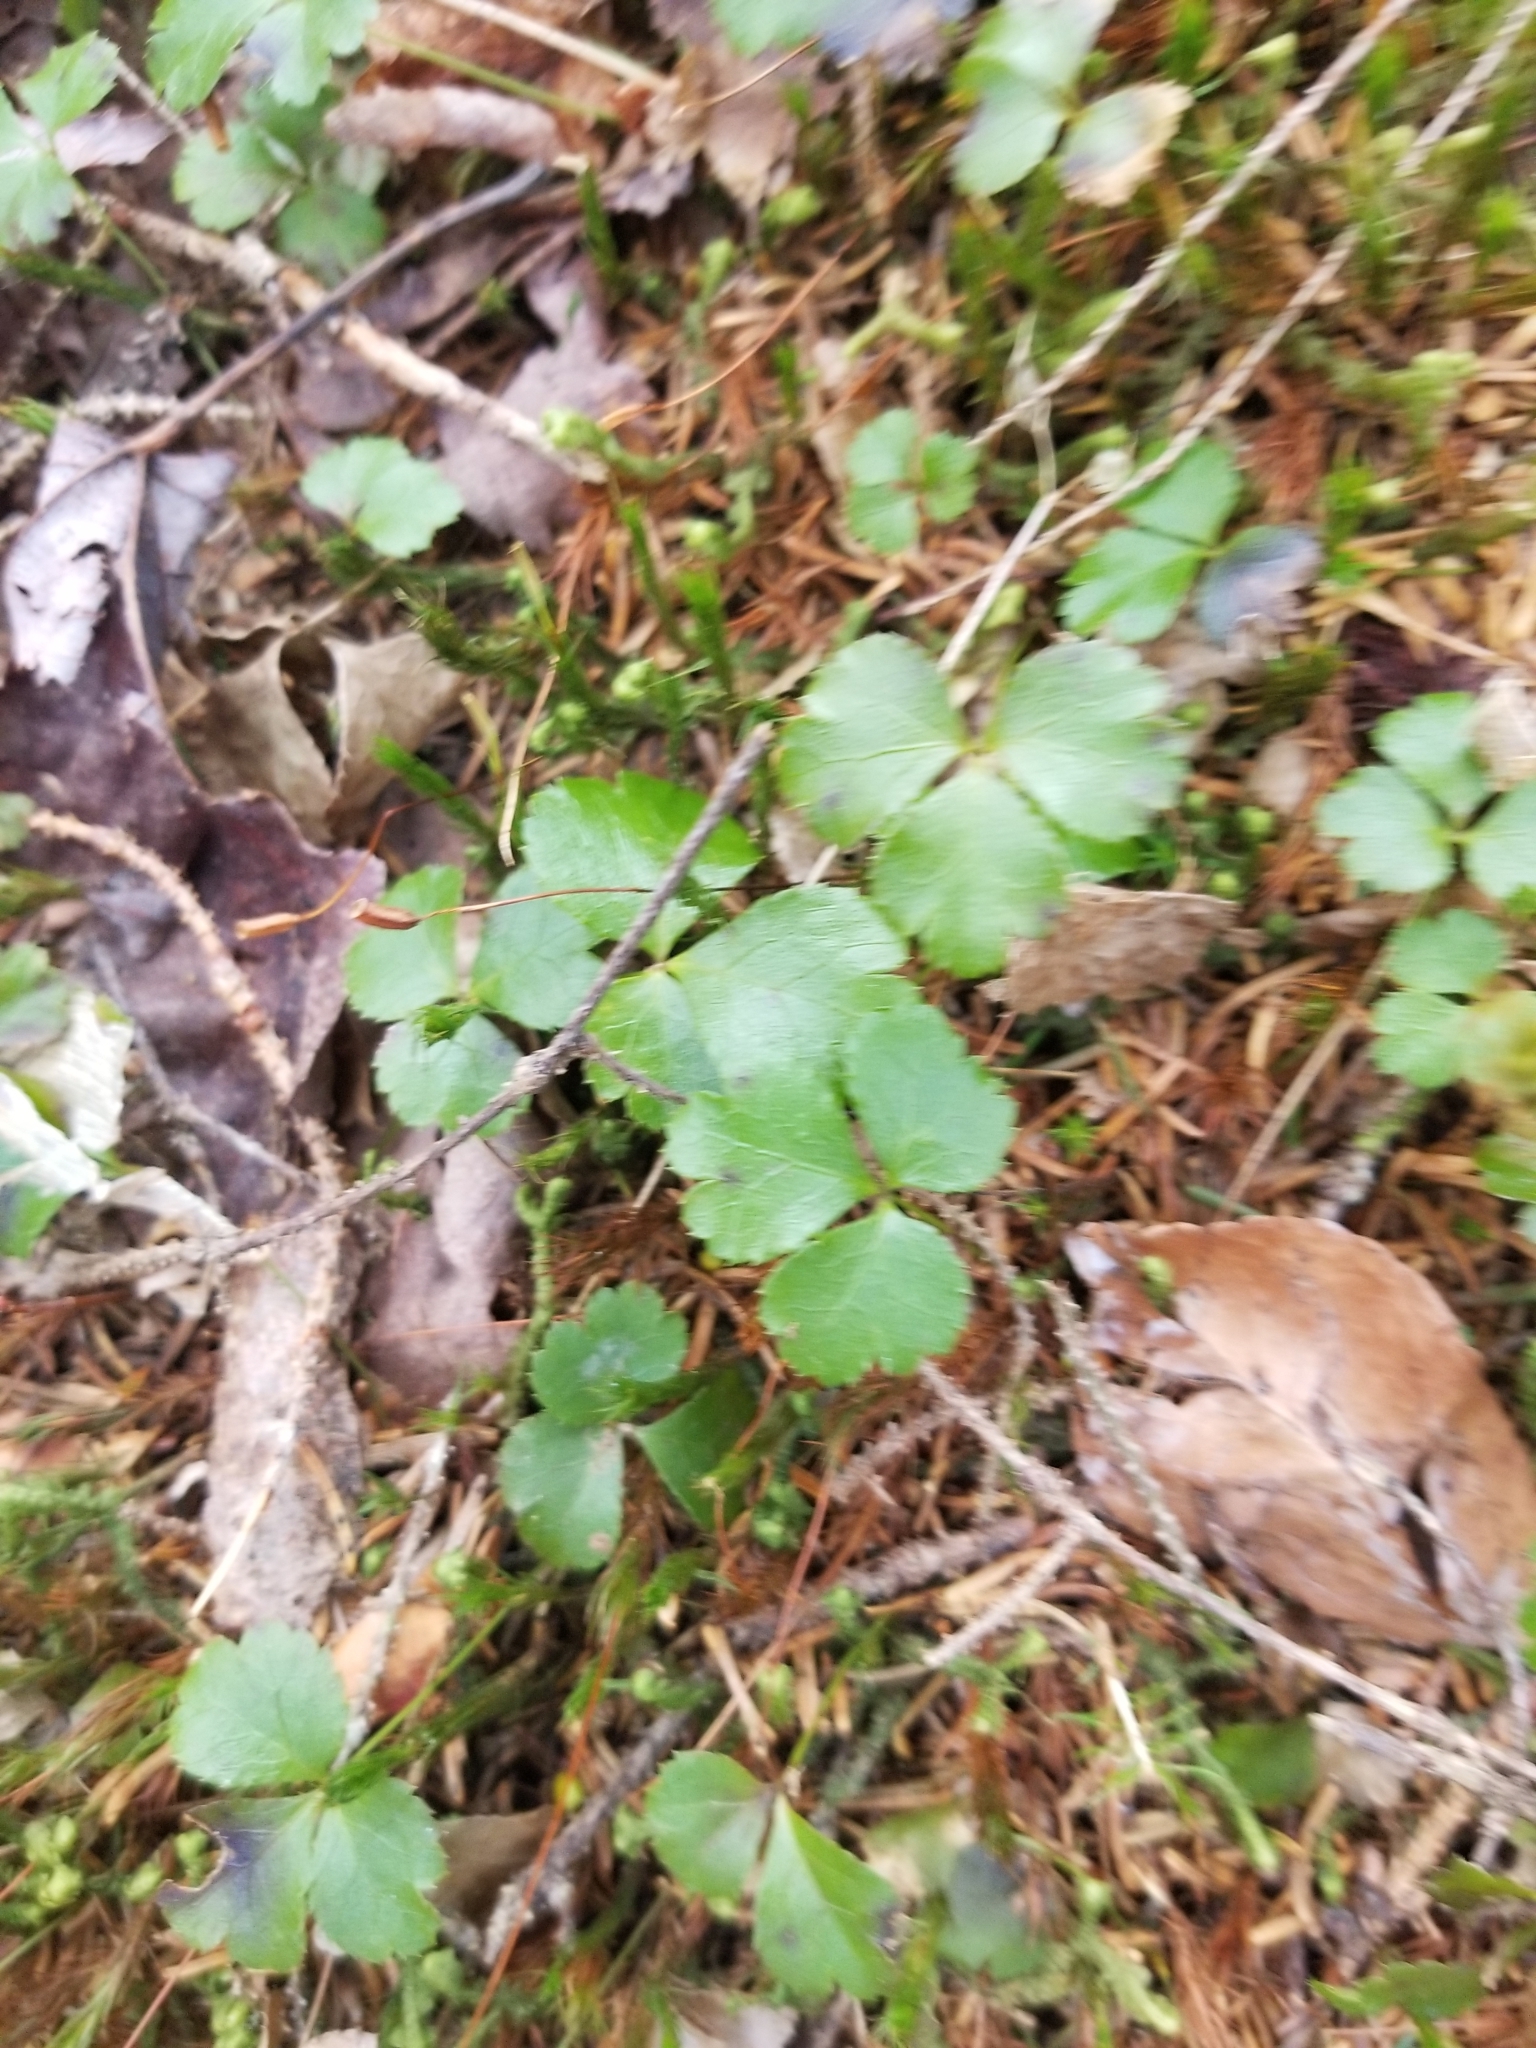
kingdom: Plantae
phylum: Tracheophyta
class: Magnoliopsida
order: Ranunculales
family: Ranunculaceae
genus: Coptis
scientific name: Coptis trifolia
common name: Canker-root
